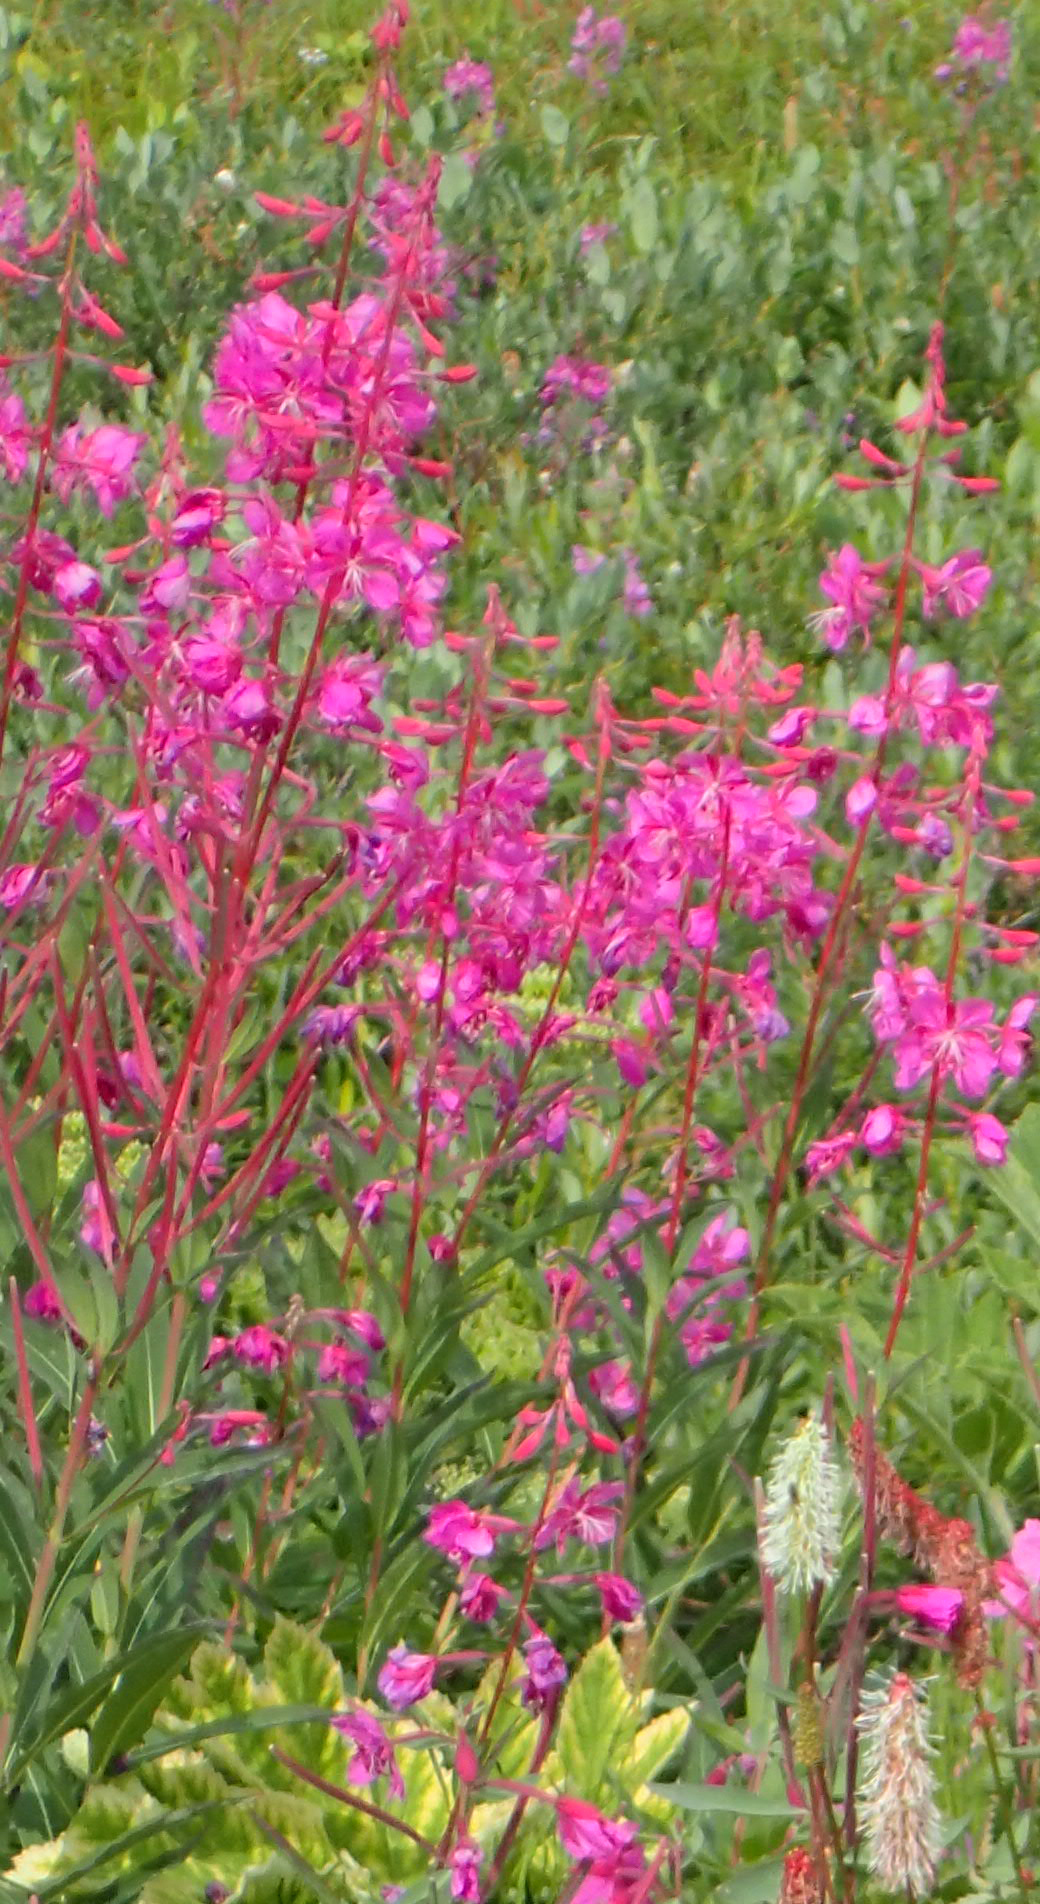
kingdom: Plantae
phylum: Tracheophyta
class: Magnoliopsida
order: Myrtales
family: Onagraceae
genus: Chamaenerion
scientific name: Chamaenerion angustifolium
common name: Fireweed
